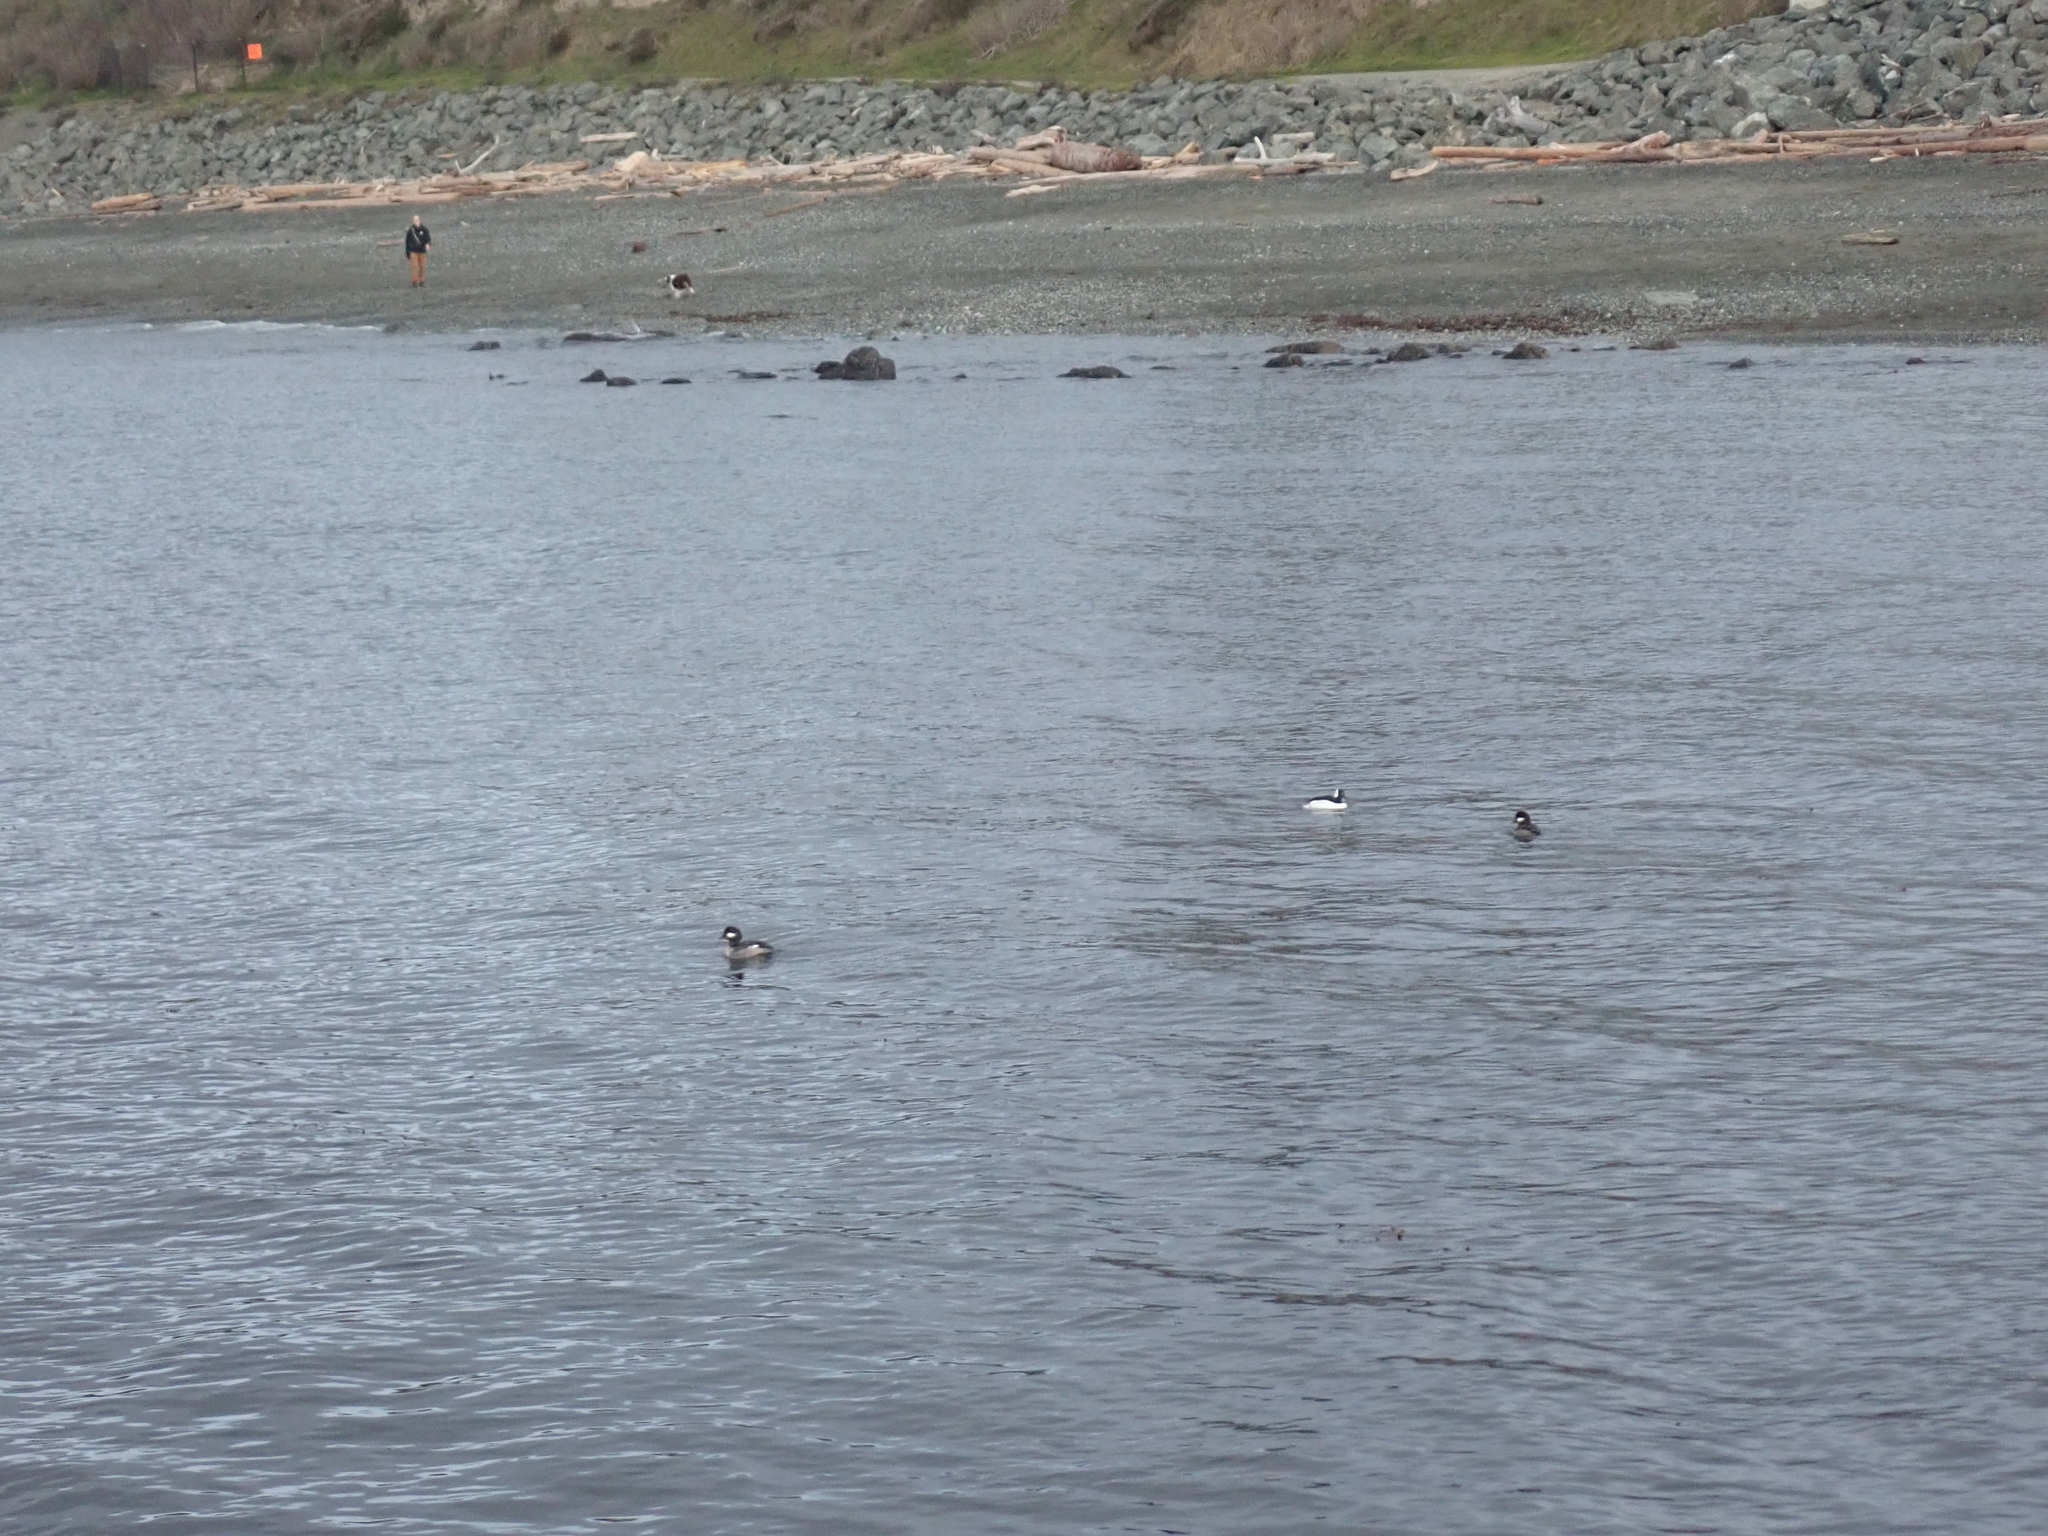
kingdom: Animalia
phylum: Chordata
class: Aves
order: Anseriformes
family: Anatidae
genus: Bucephala
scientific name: Bucephala albeola
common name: Bufflehead
